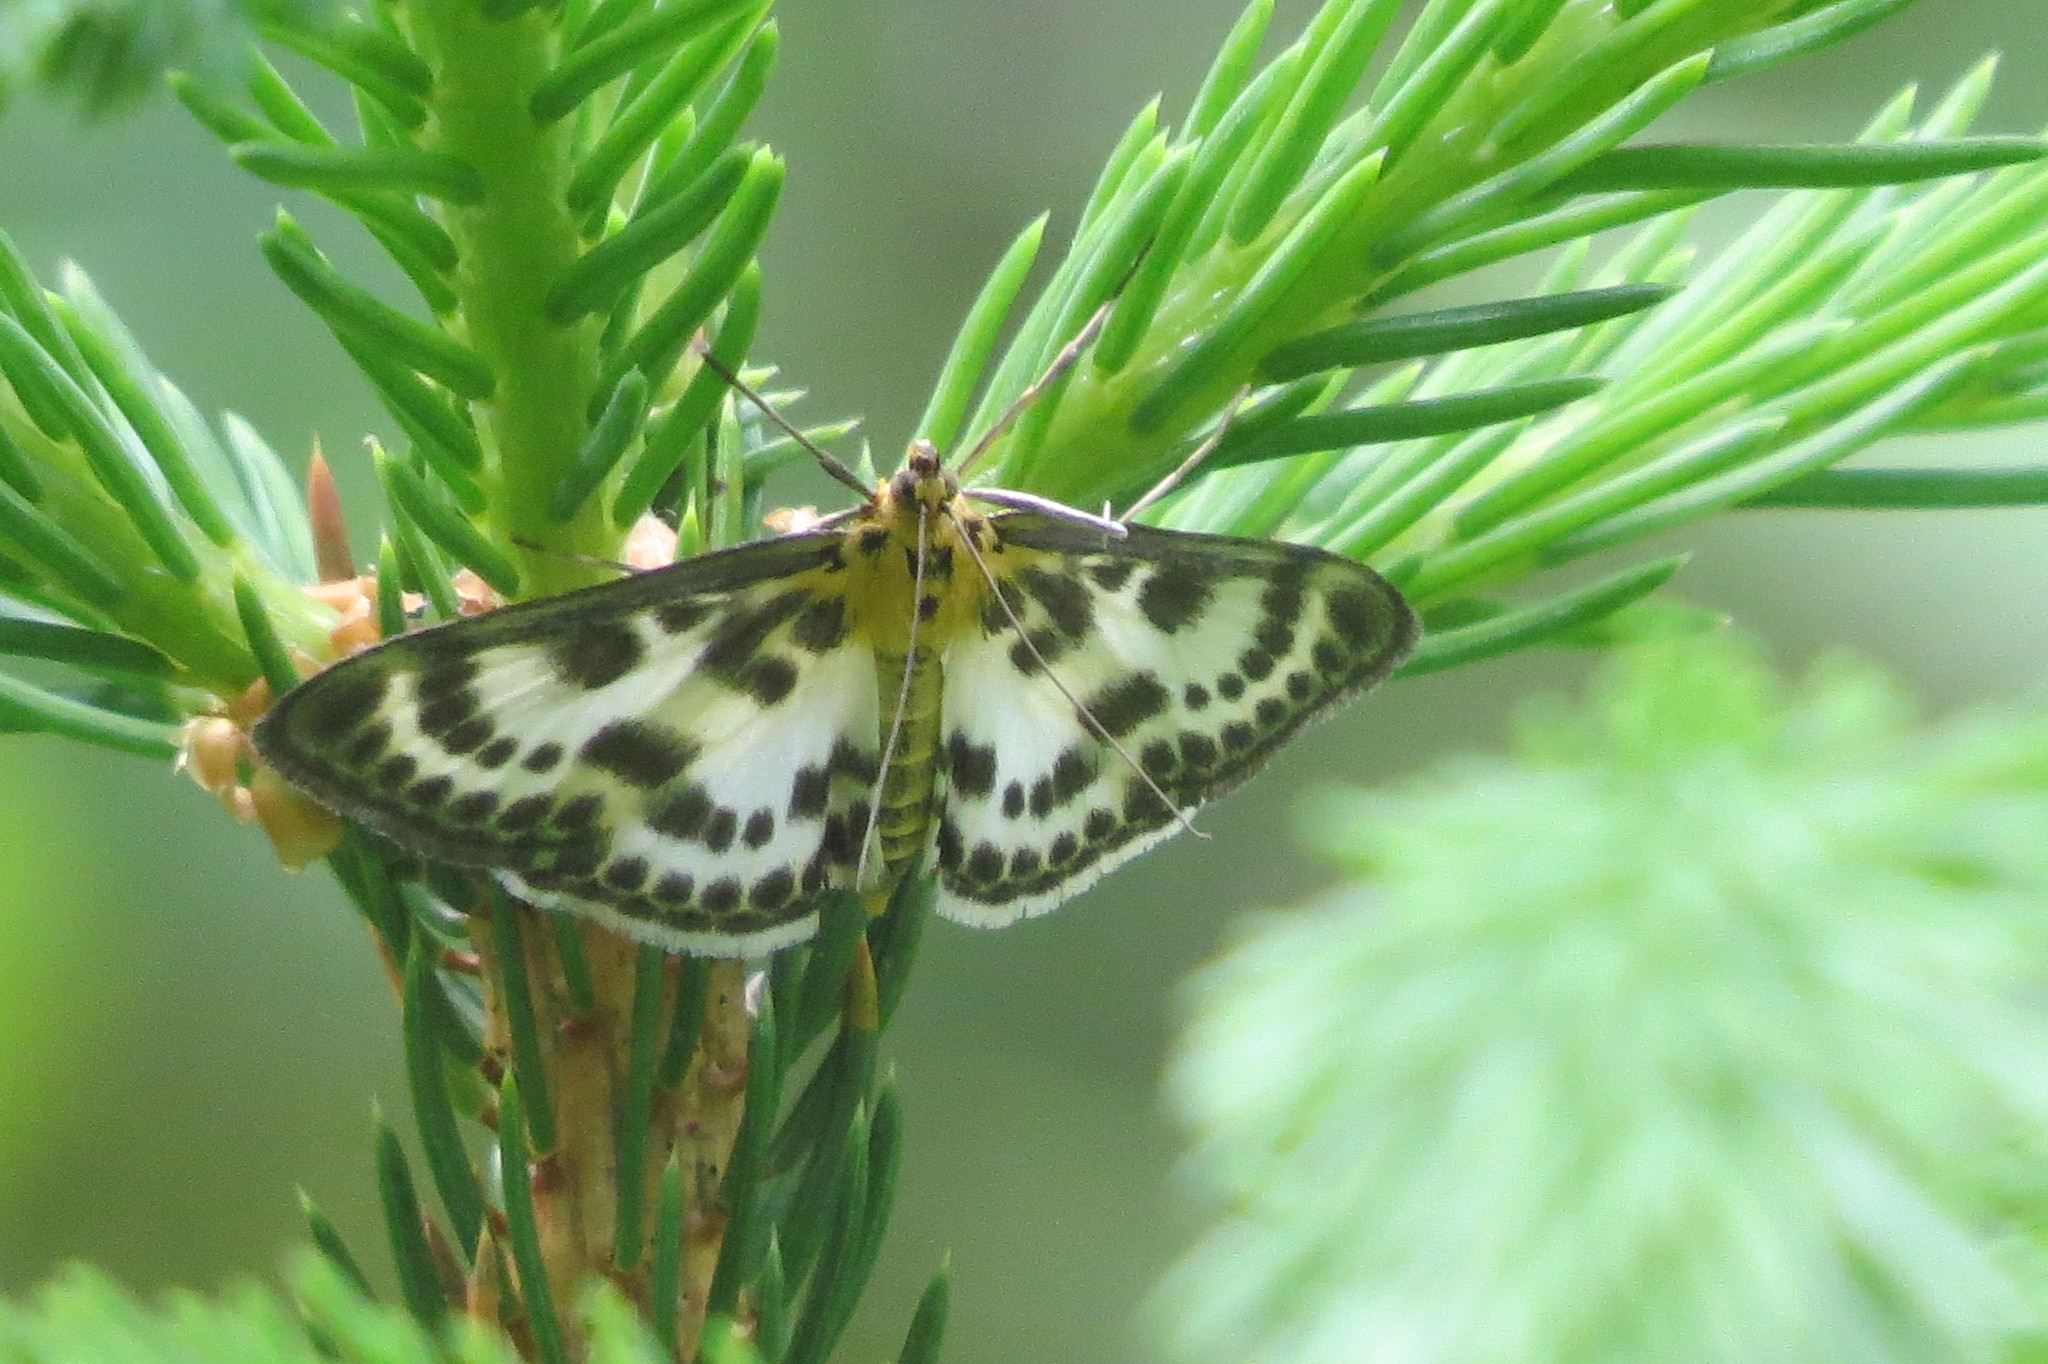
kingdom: Animalia
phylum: Arthropoda
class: Insecta
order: Lepidoptera
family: Crambidae
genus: Anania
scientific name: Anania hortulata
